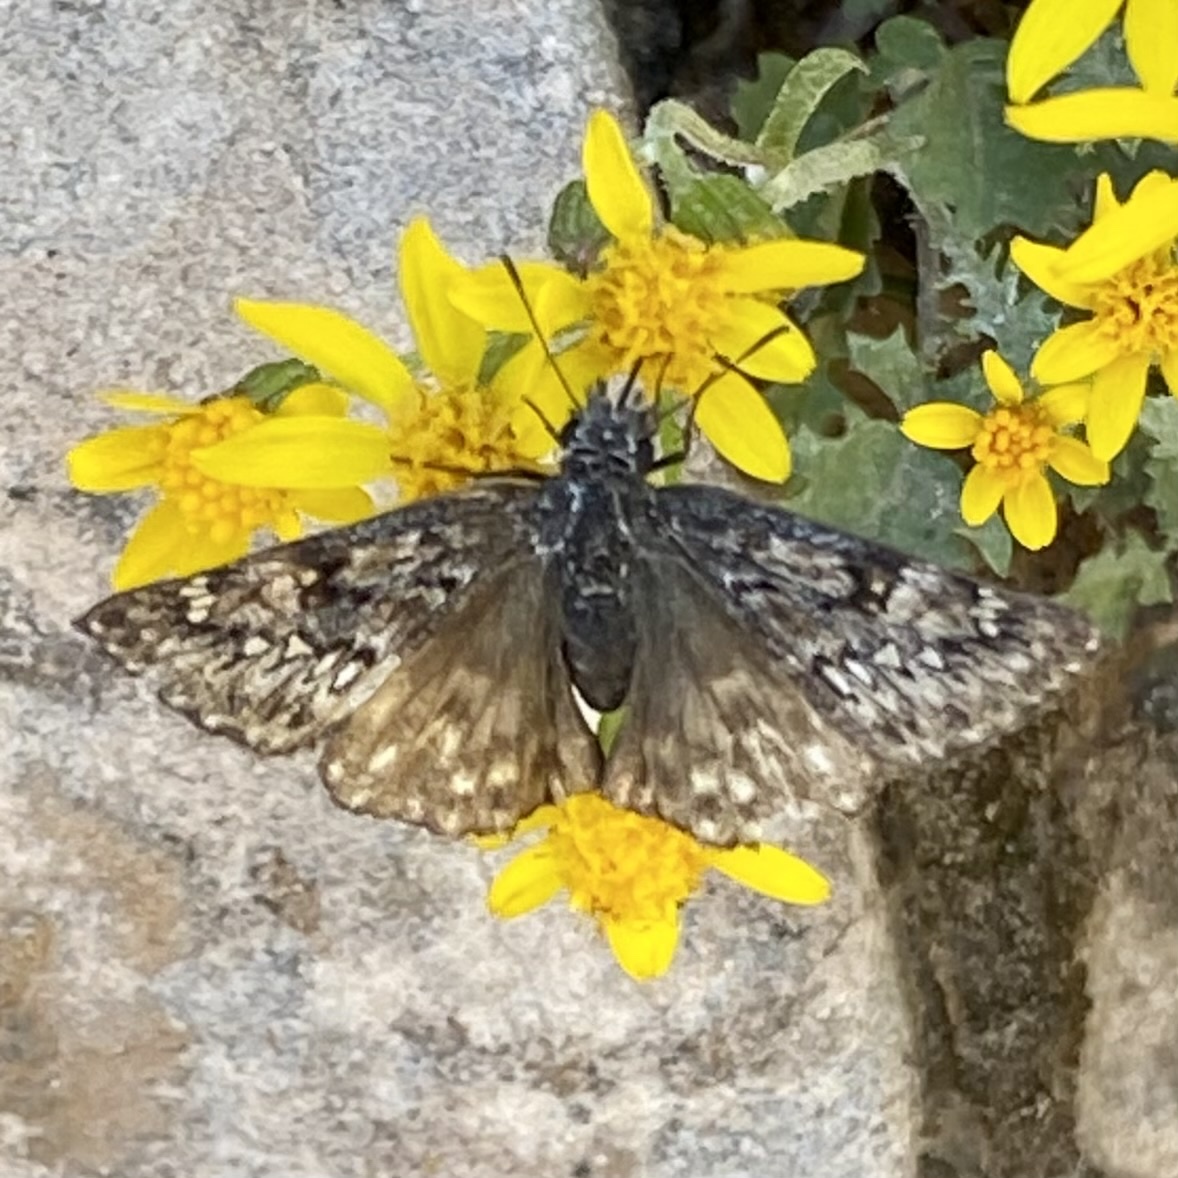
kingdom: Animalia
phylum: Arthropoda
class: Insecta
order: Lepidoptera
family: Hesperiidae
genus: Erynnis
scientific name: Erynnis telemachus
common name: Rocky mountain duskywing
